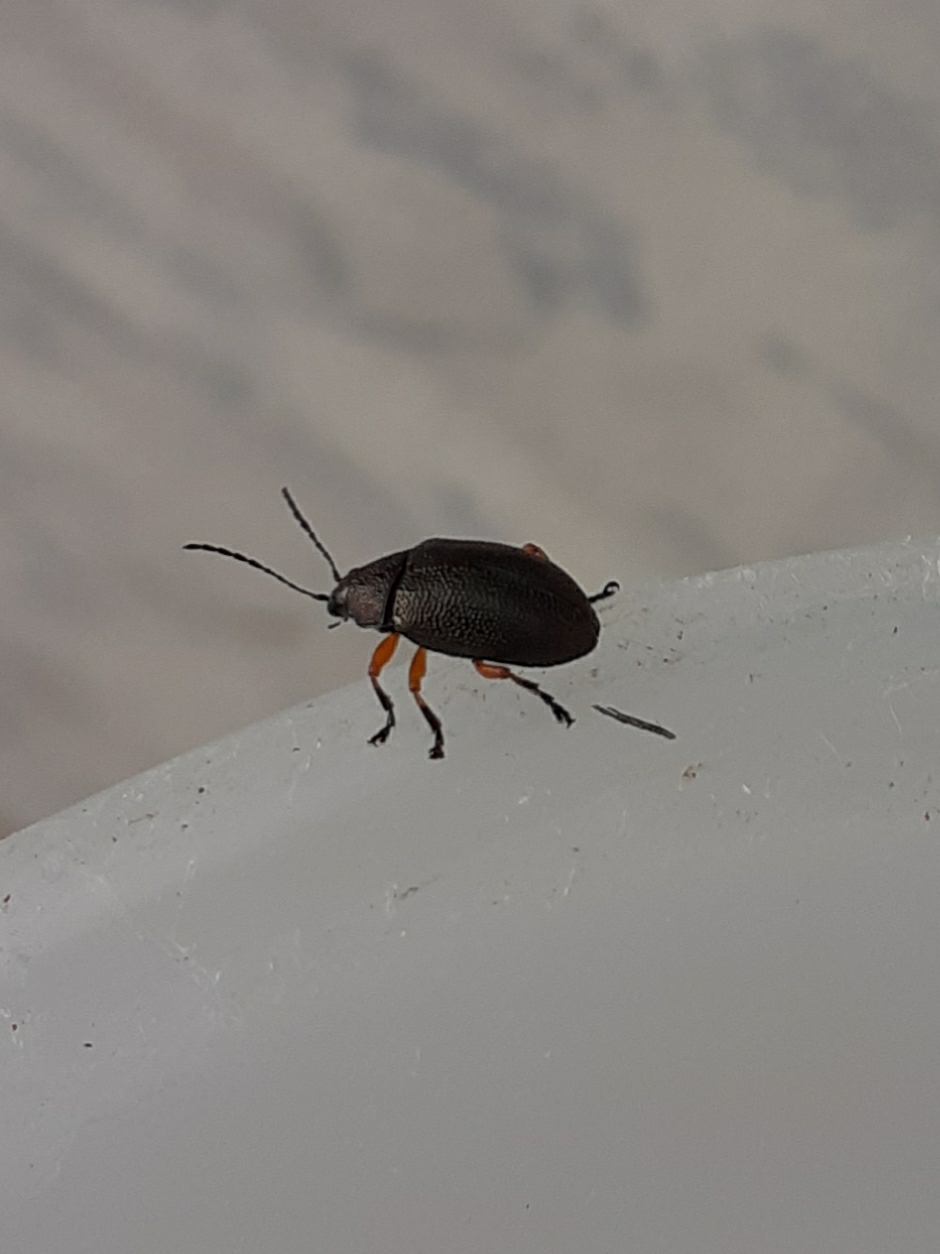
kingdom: Animalia
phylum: Arthropoda
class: Insecta
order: Coleoptera
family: Chrysomelidae
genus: Nodocolaspis
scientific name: Nodocolaspis
